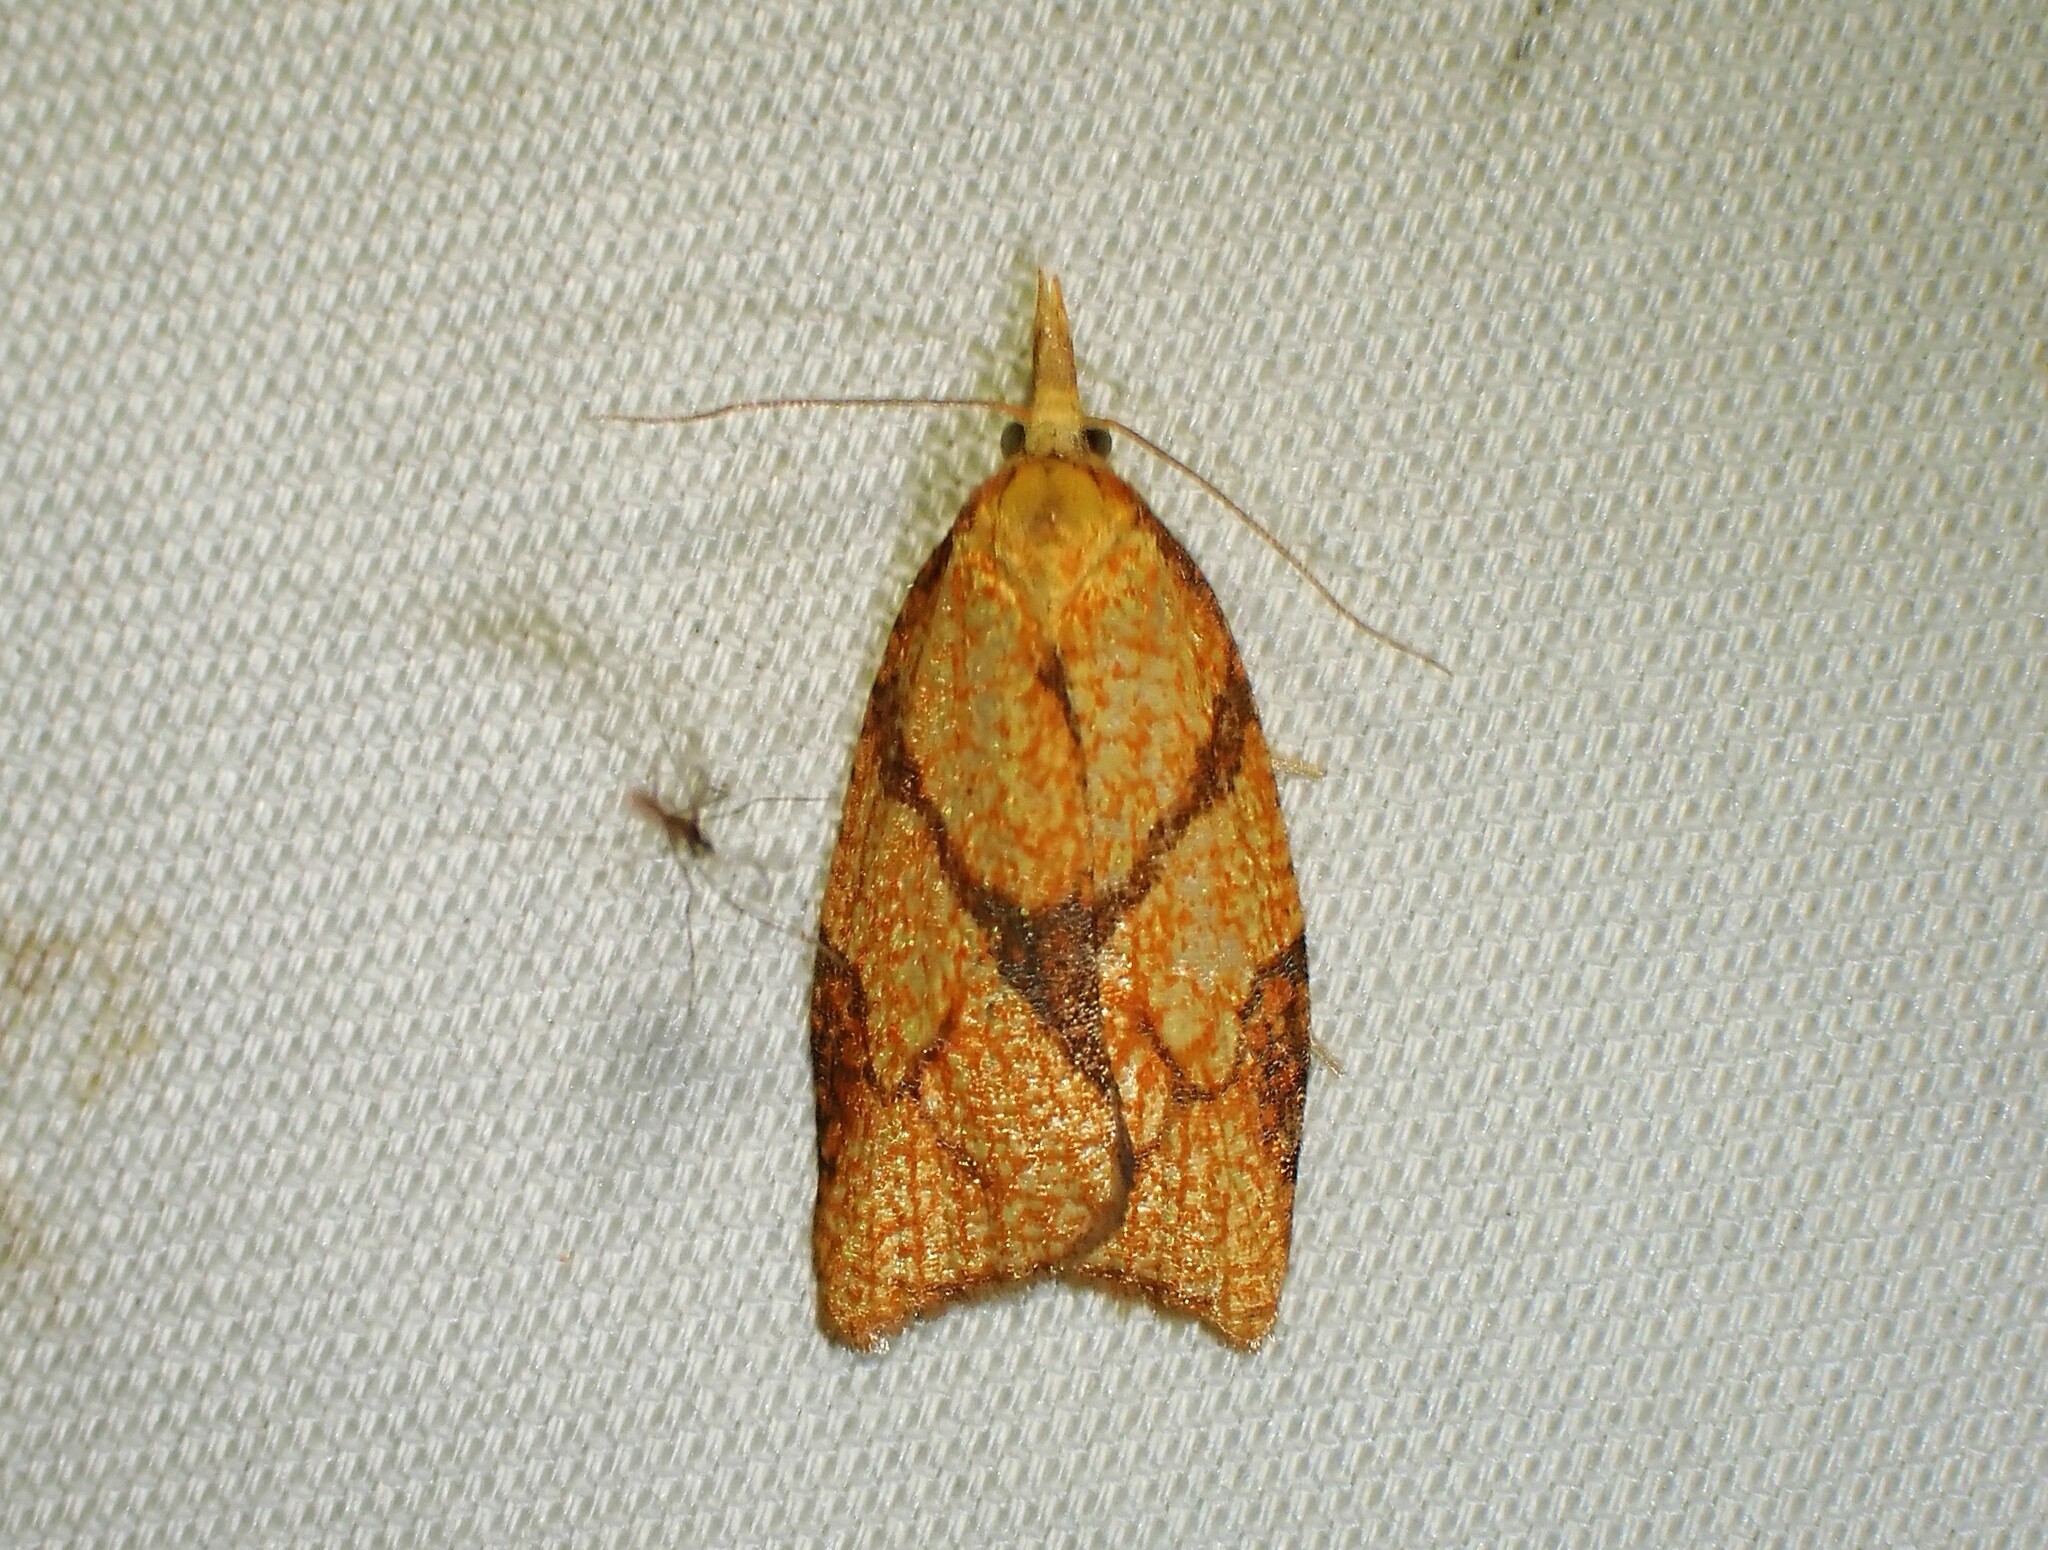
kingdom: Animalia
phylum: Arthropoda
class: Insecta
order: Lepidoptera
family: Tortricidae
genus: Cenopis
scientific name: Cenopis reticulatana
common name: Reticulated fruitworm moth
